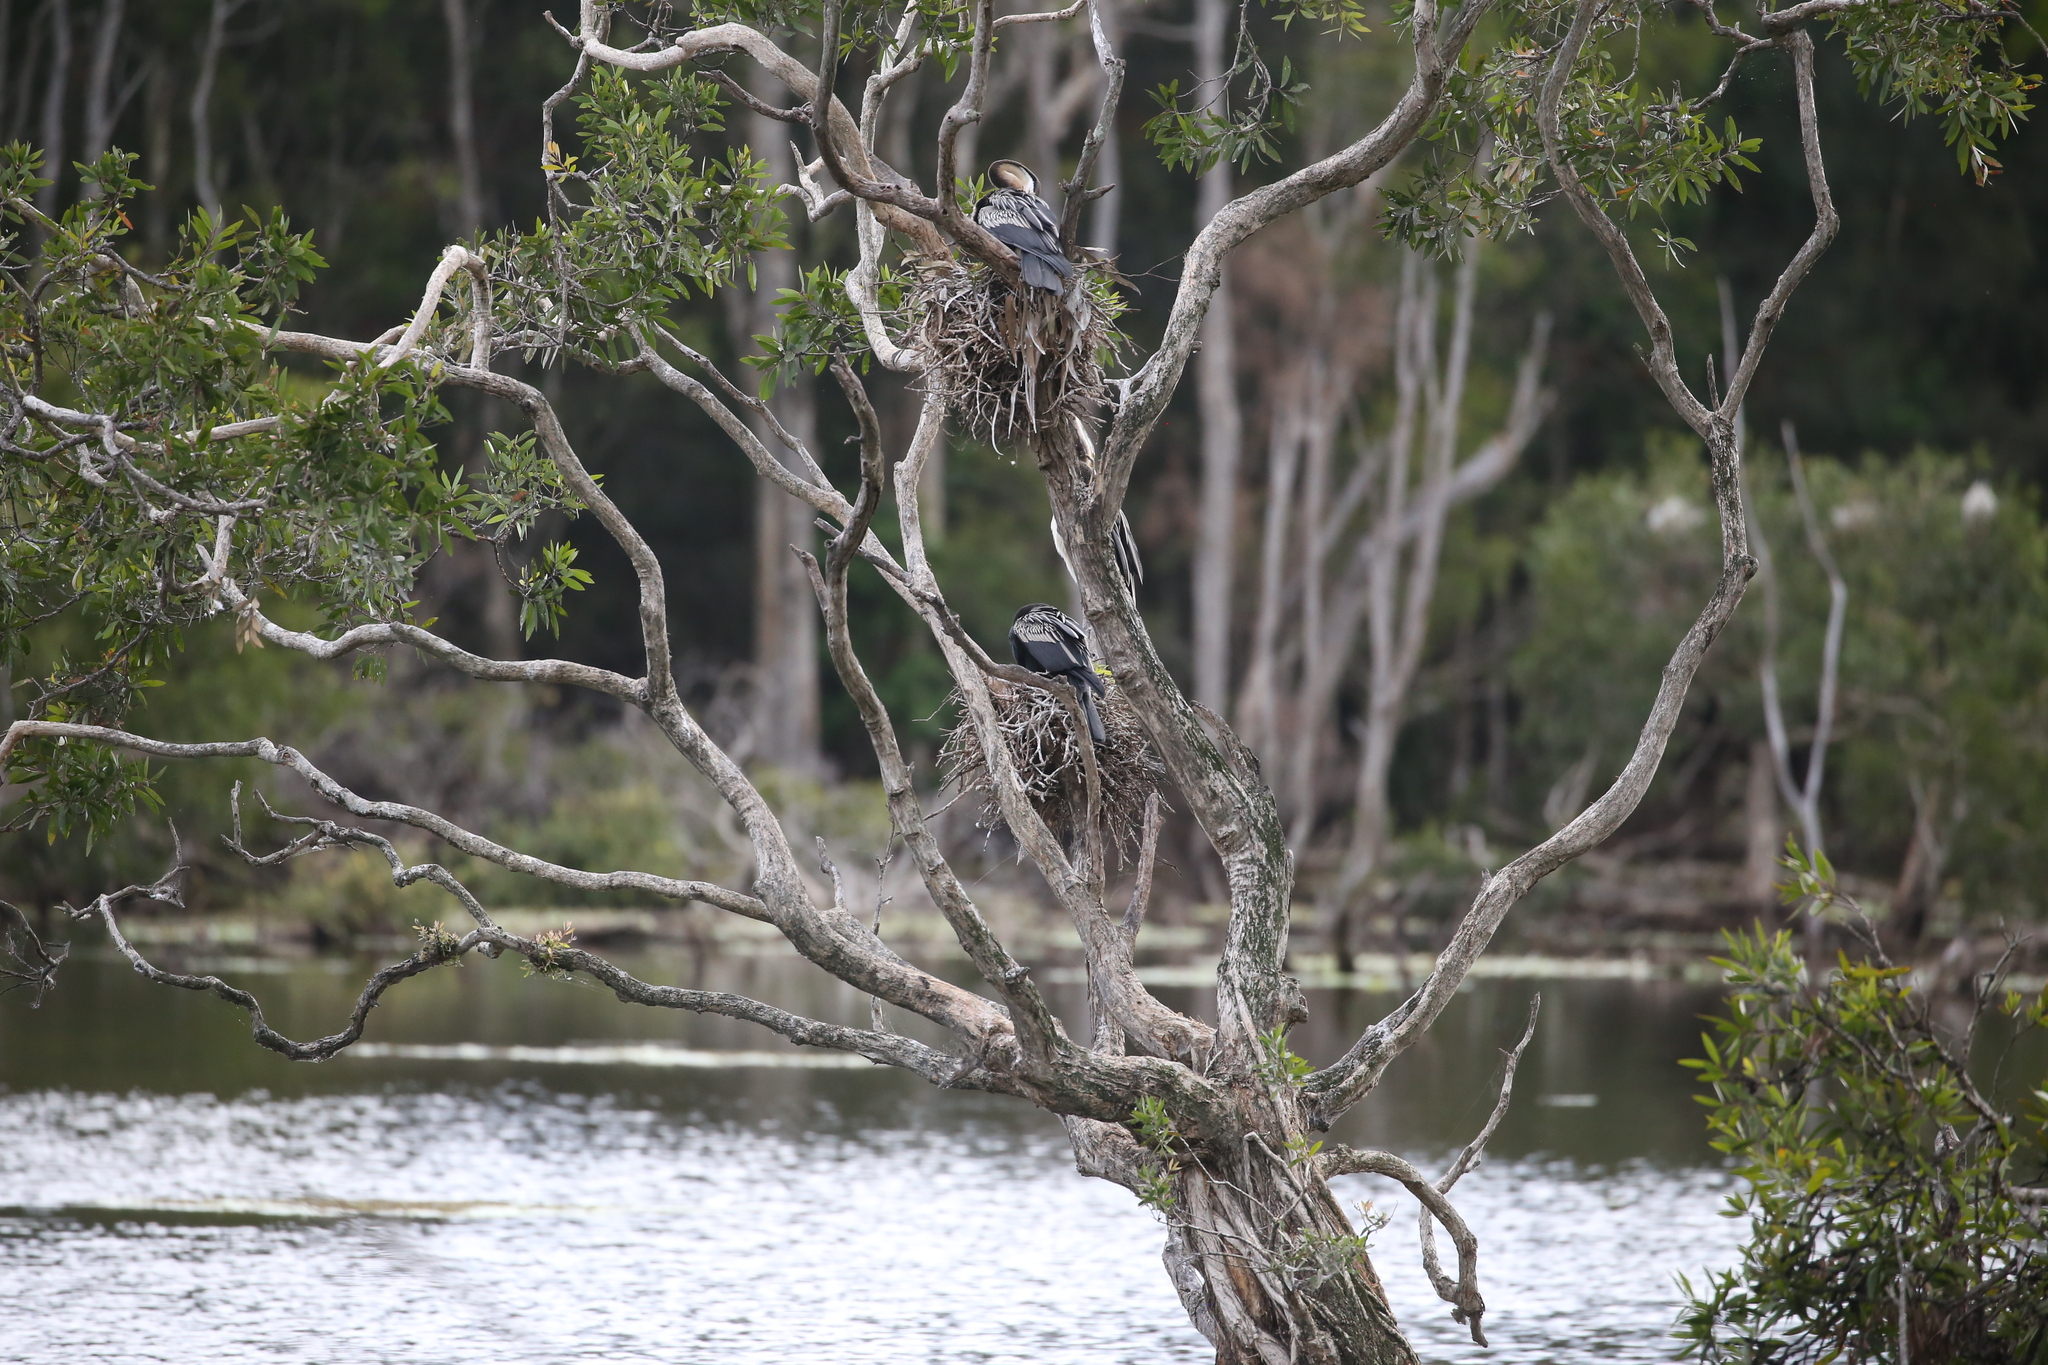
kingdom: Animalia
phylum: Chordata
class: Aves
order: Suliformes
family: Anhingidae
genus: Anhinga
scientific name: Anhinga novaehollandiae
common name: Australasian darter
